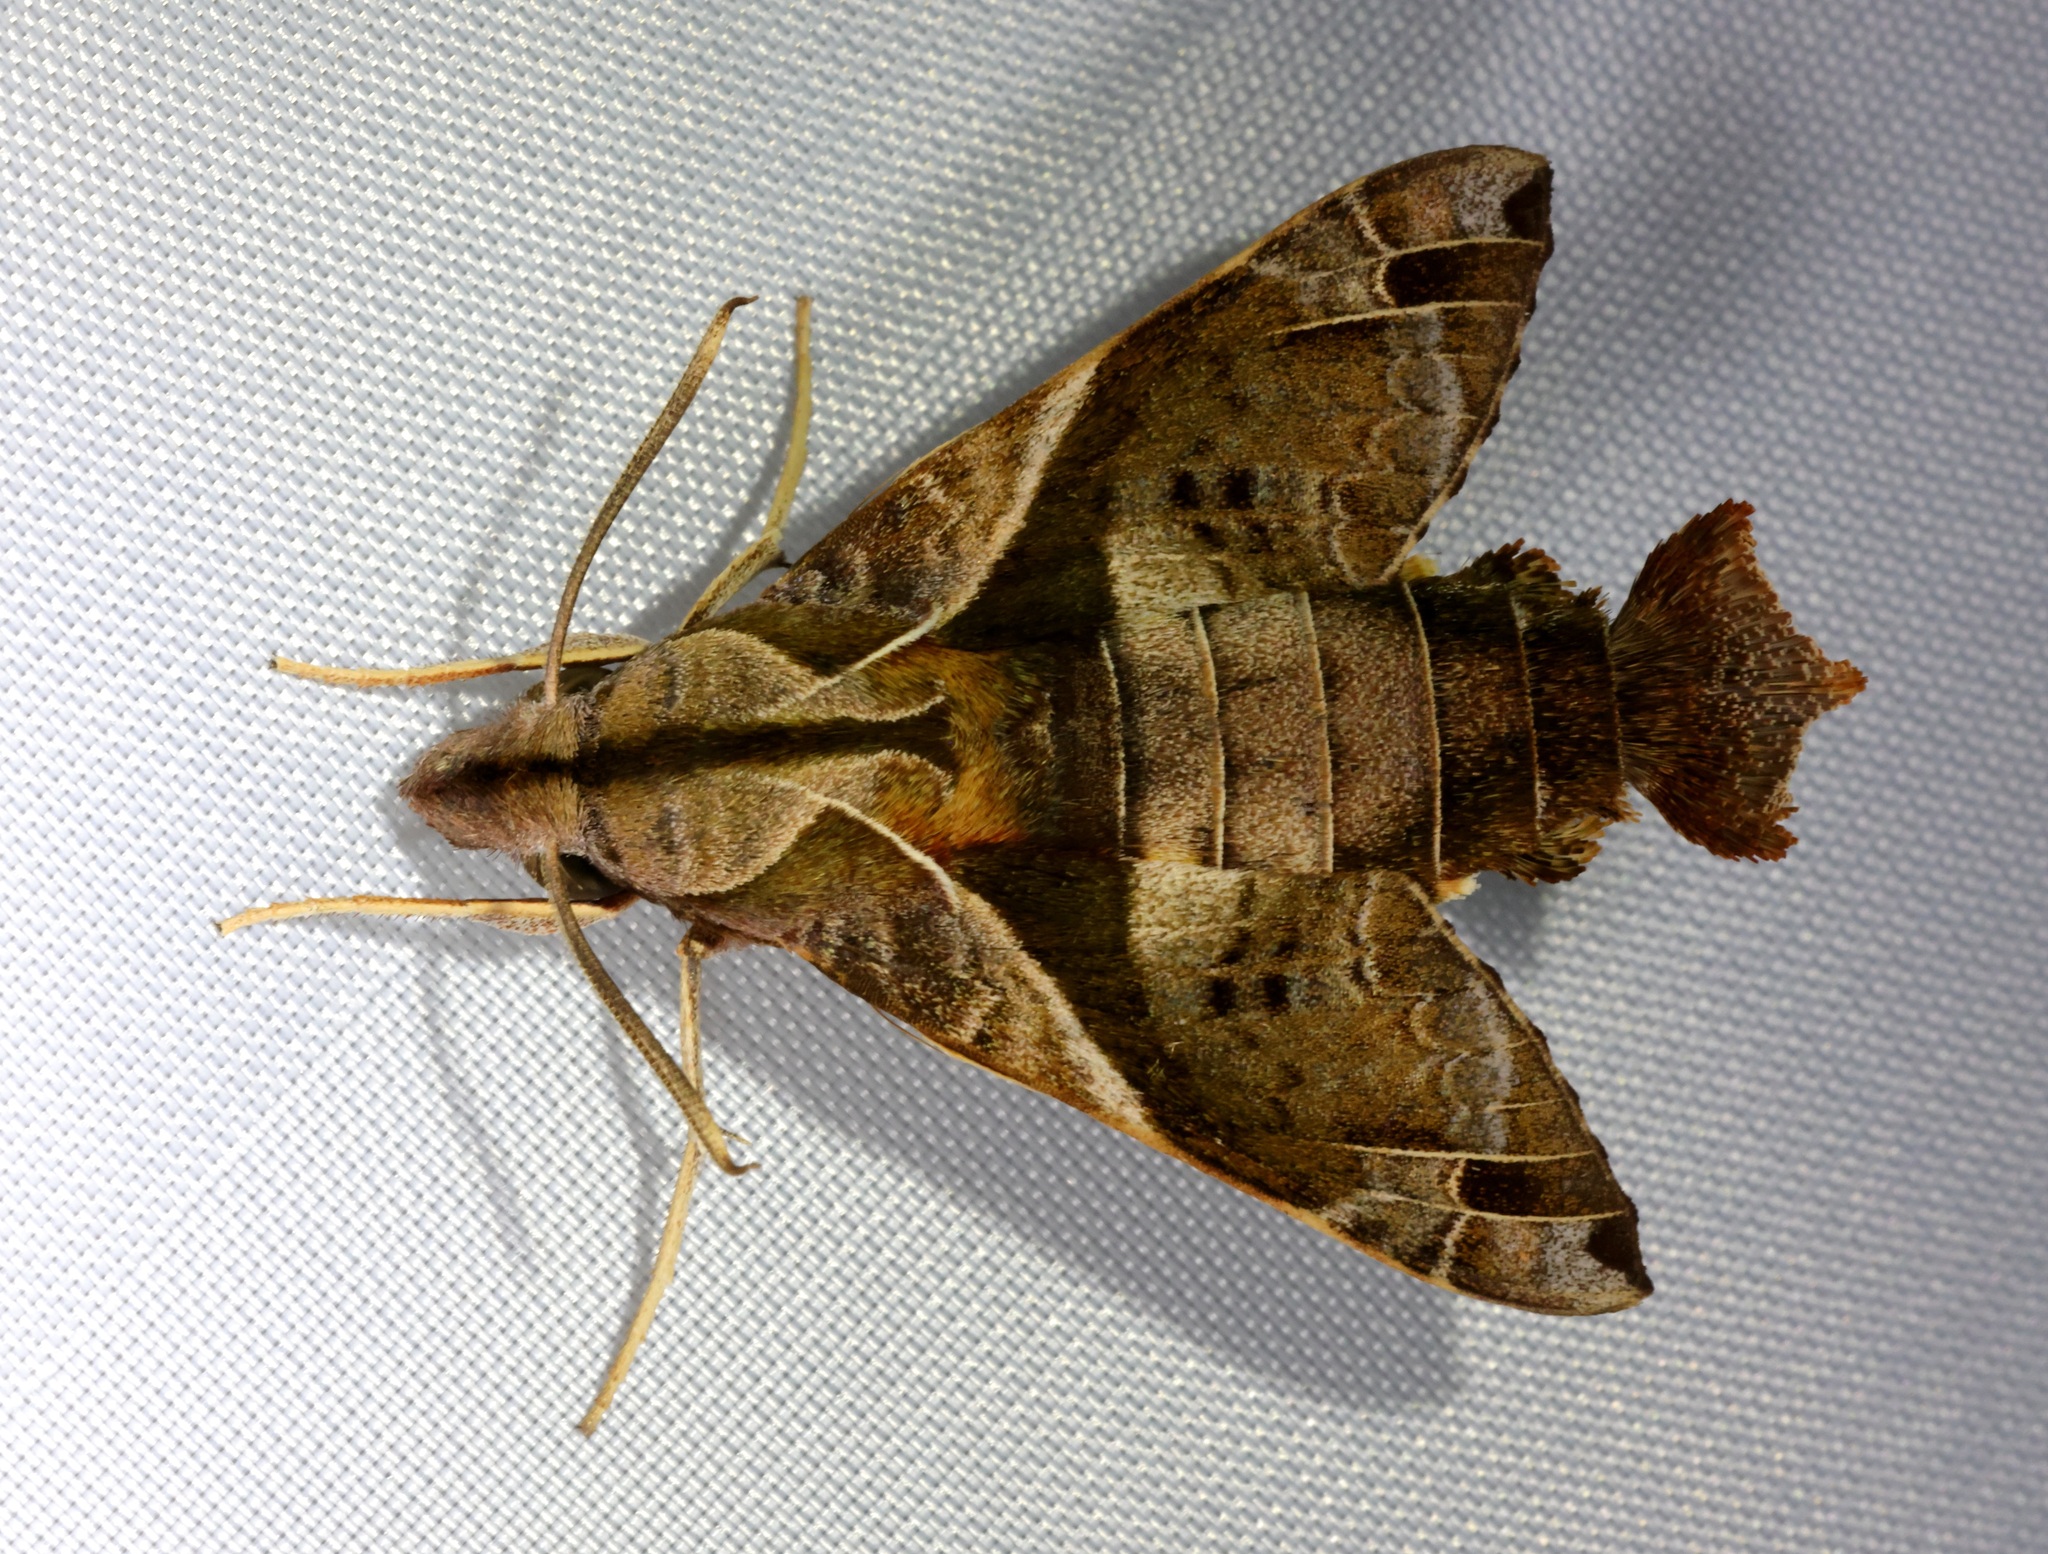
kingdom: Animalia
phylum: Arthropoda
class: Insecta
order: Lepidoptera
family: Sphingidae
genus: Macroglossum
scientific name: Macroglossum fritzei
